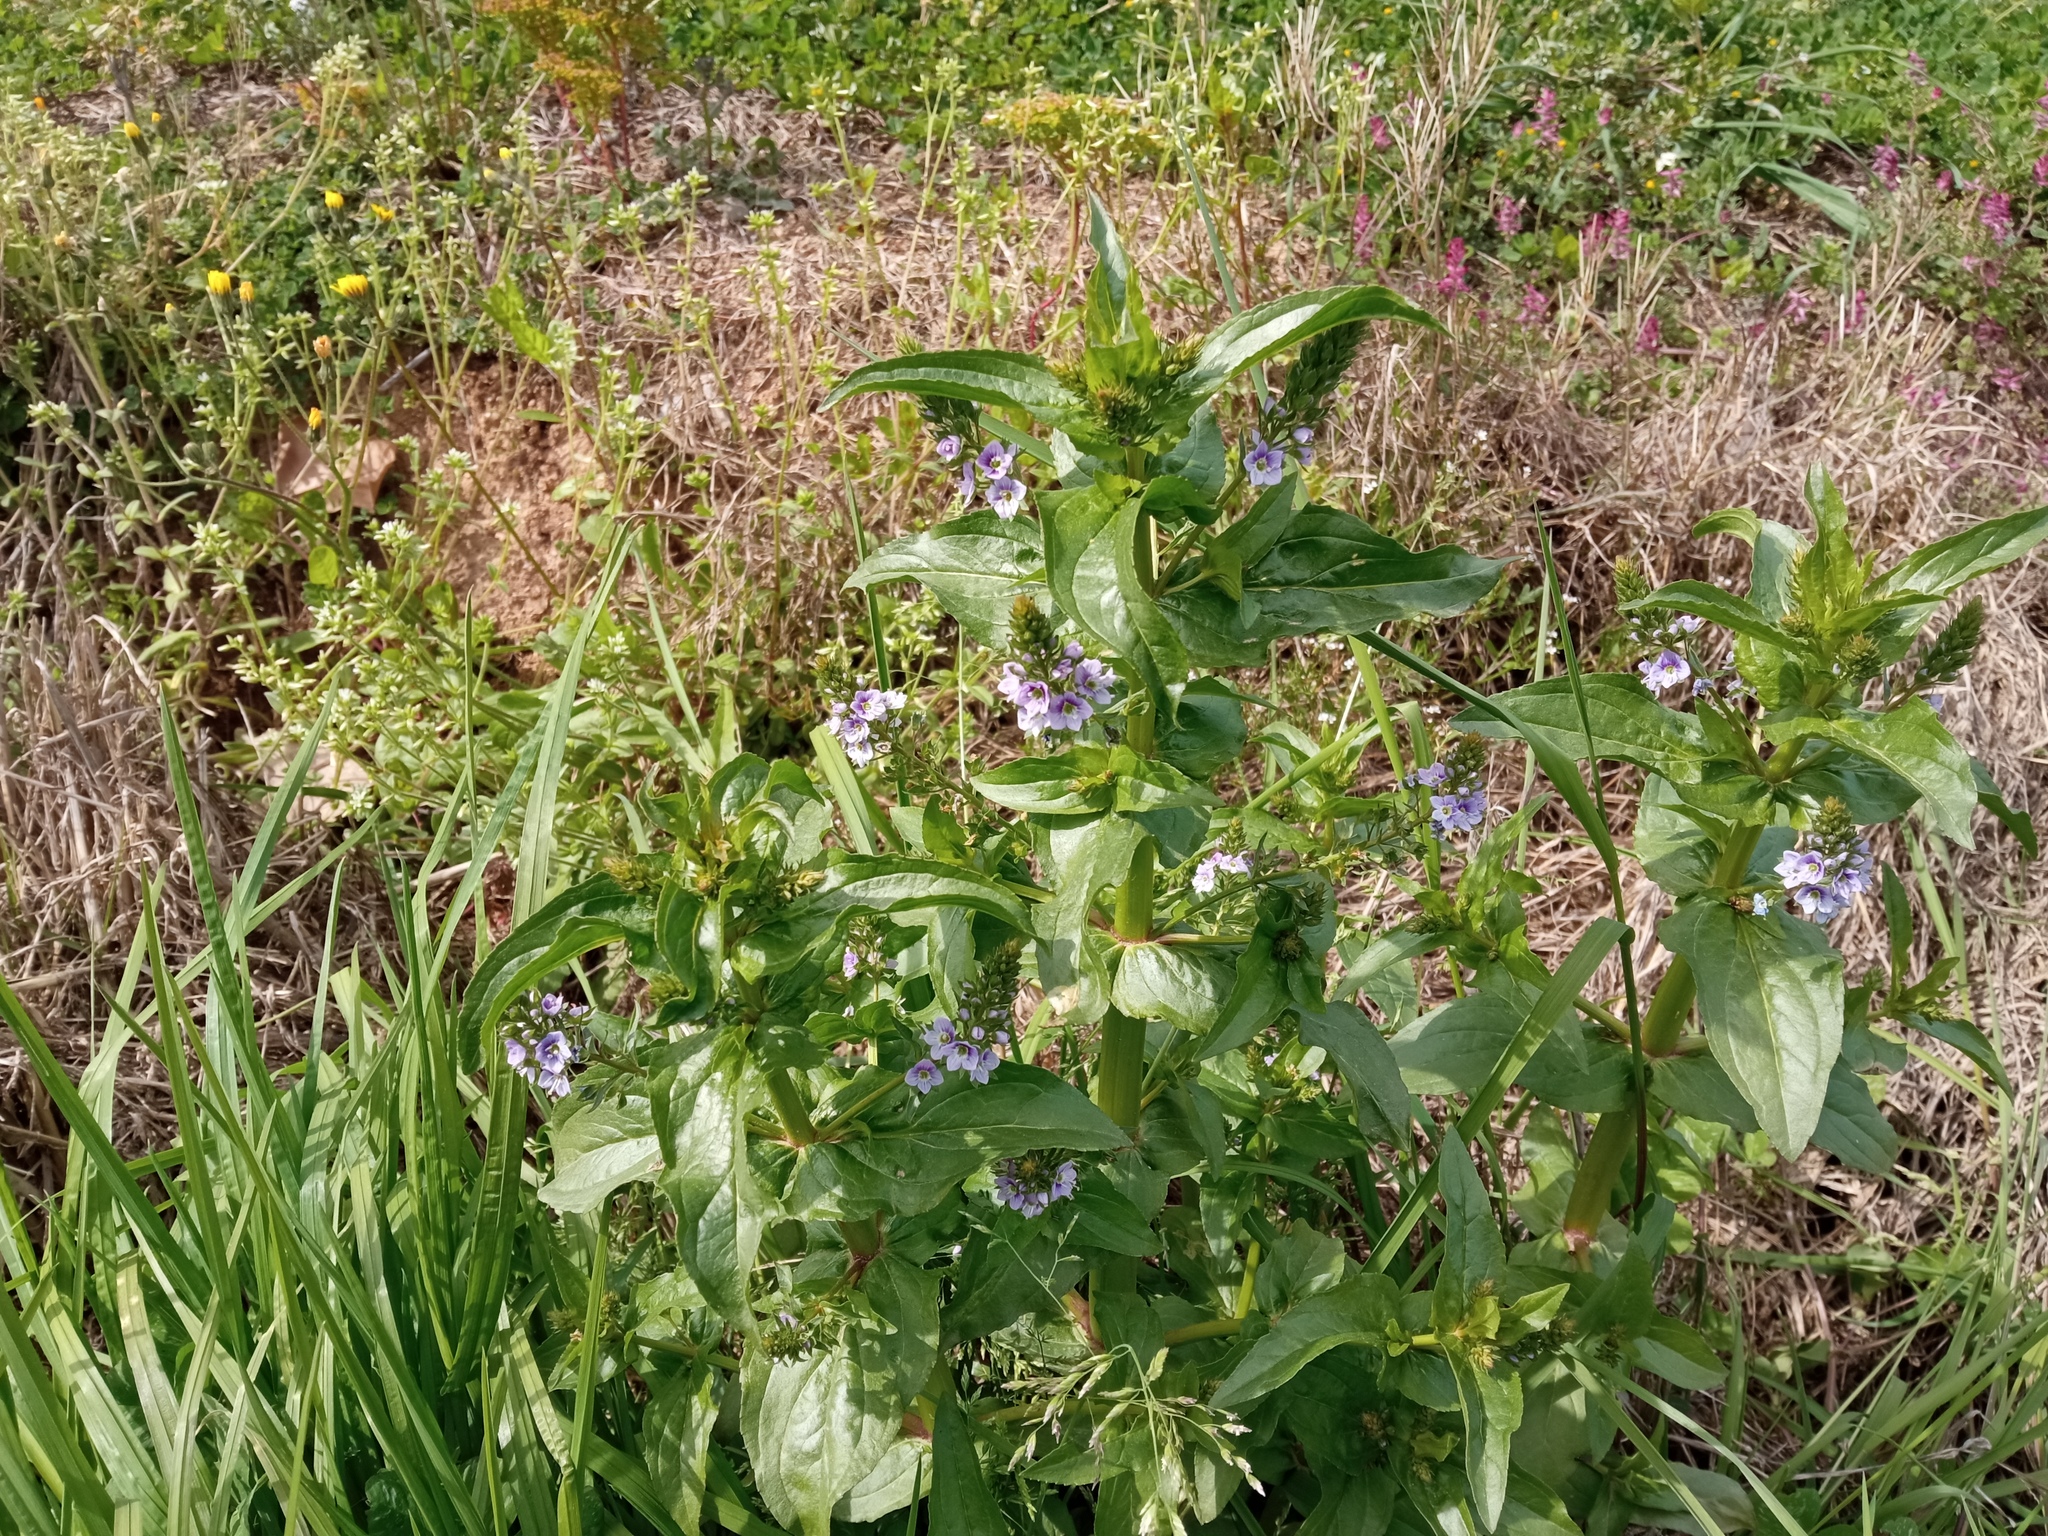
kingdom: Plantae
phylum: Tracheophyta
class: Magnoliopsida
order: Lamiales
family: Plantaginaceae
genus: Veronica
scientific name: Veronica anagallis-aquatica
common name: Water speedwell
